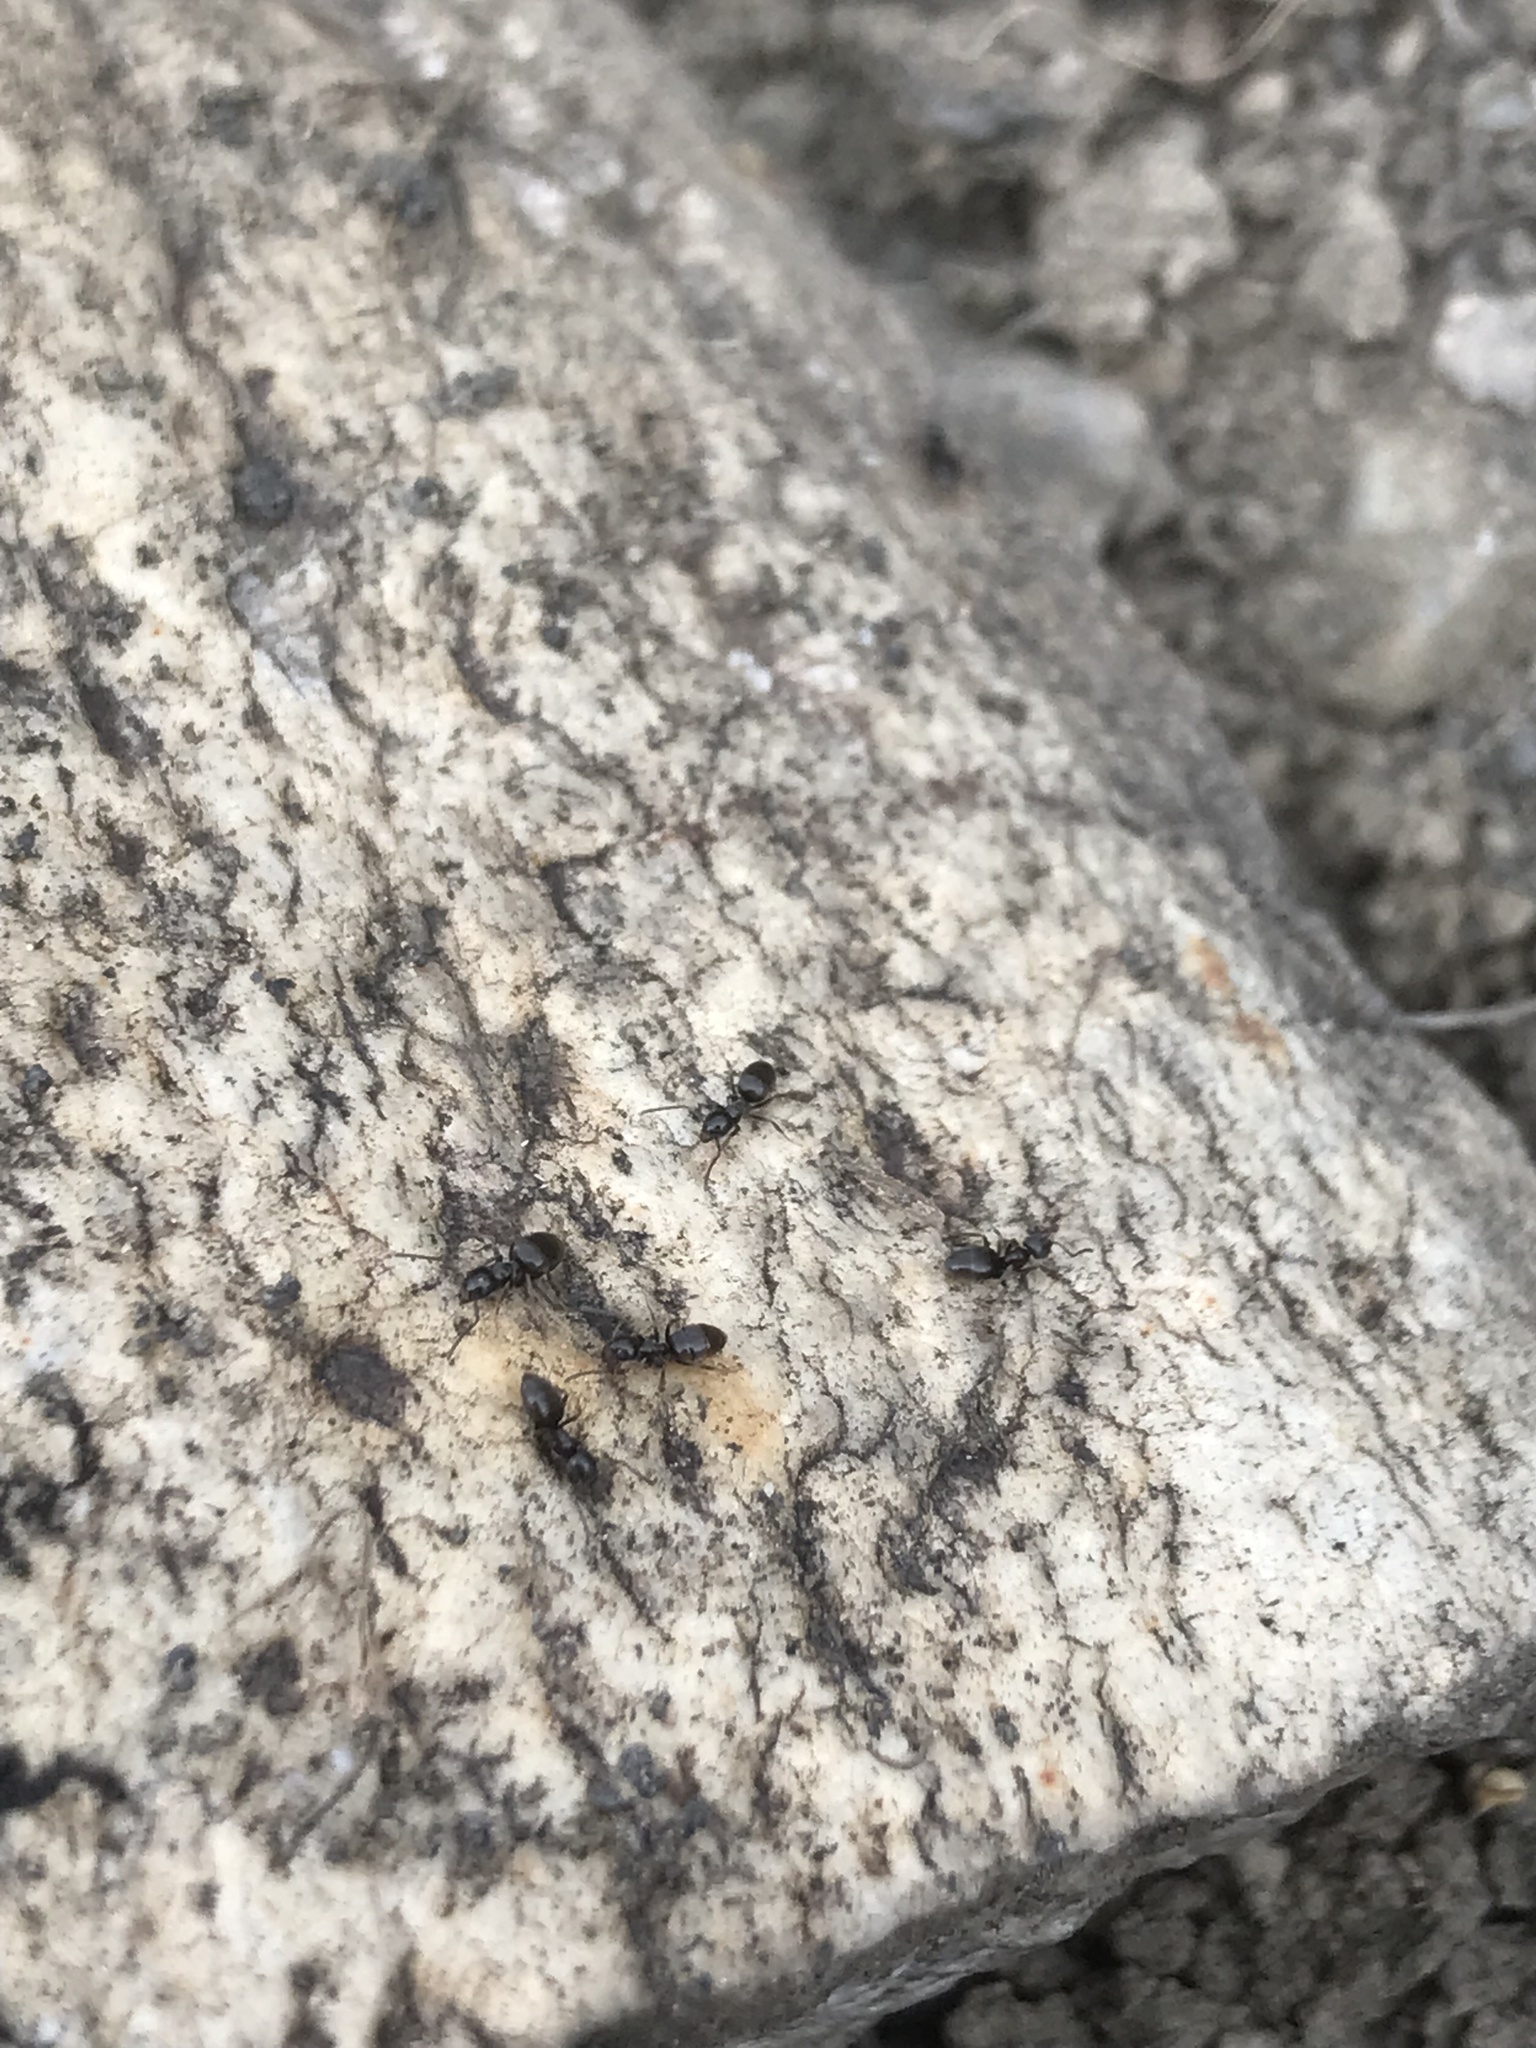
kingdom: Animalia
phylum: Arthropoda
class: Insecta
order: Hymenoptera
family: Formicidae
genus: Tapinoma
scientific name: Tapinoma sessile
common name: Odorous house ant
